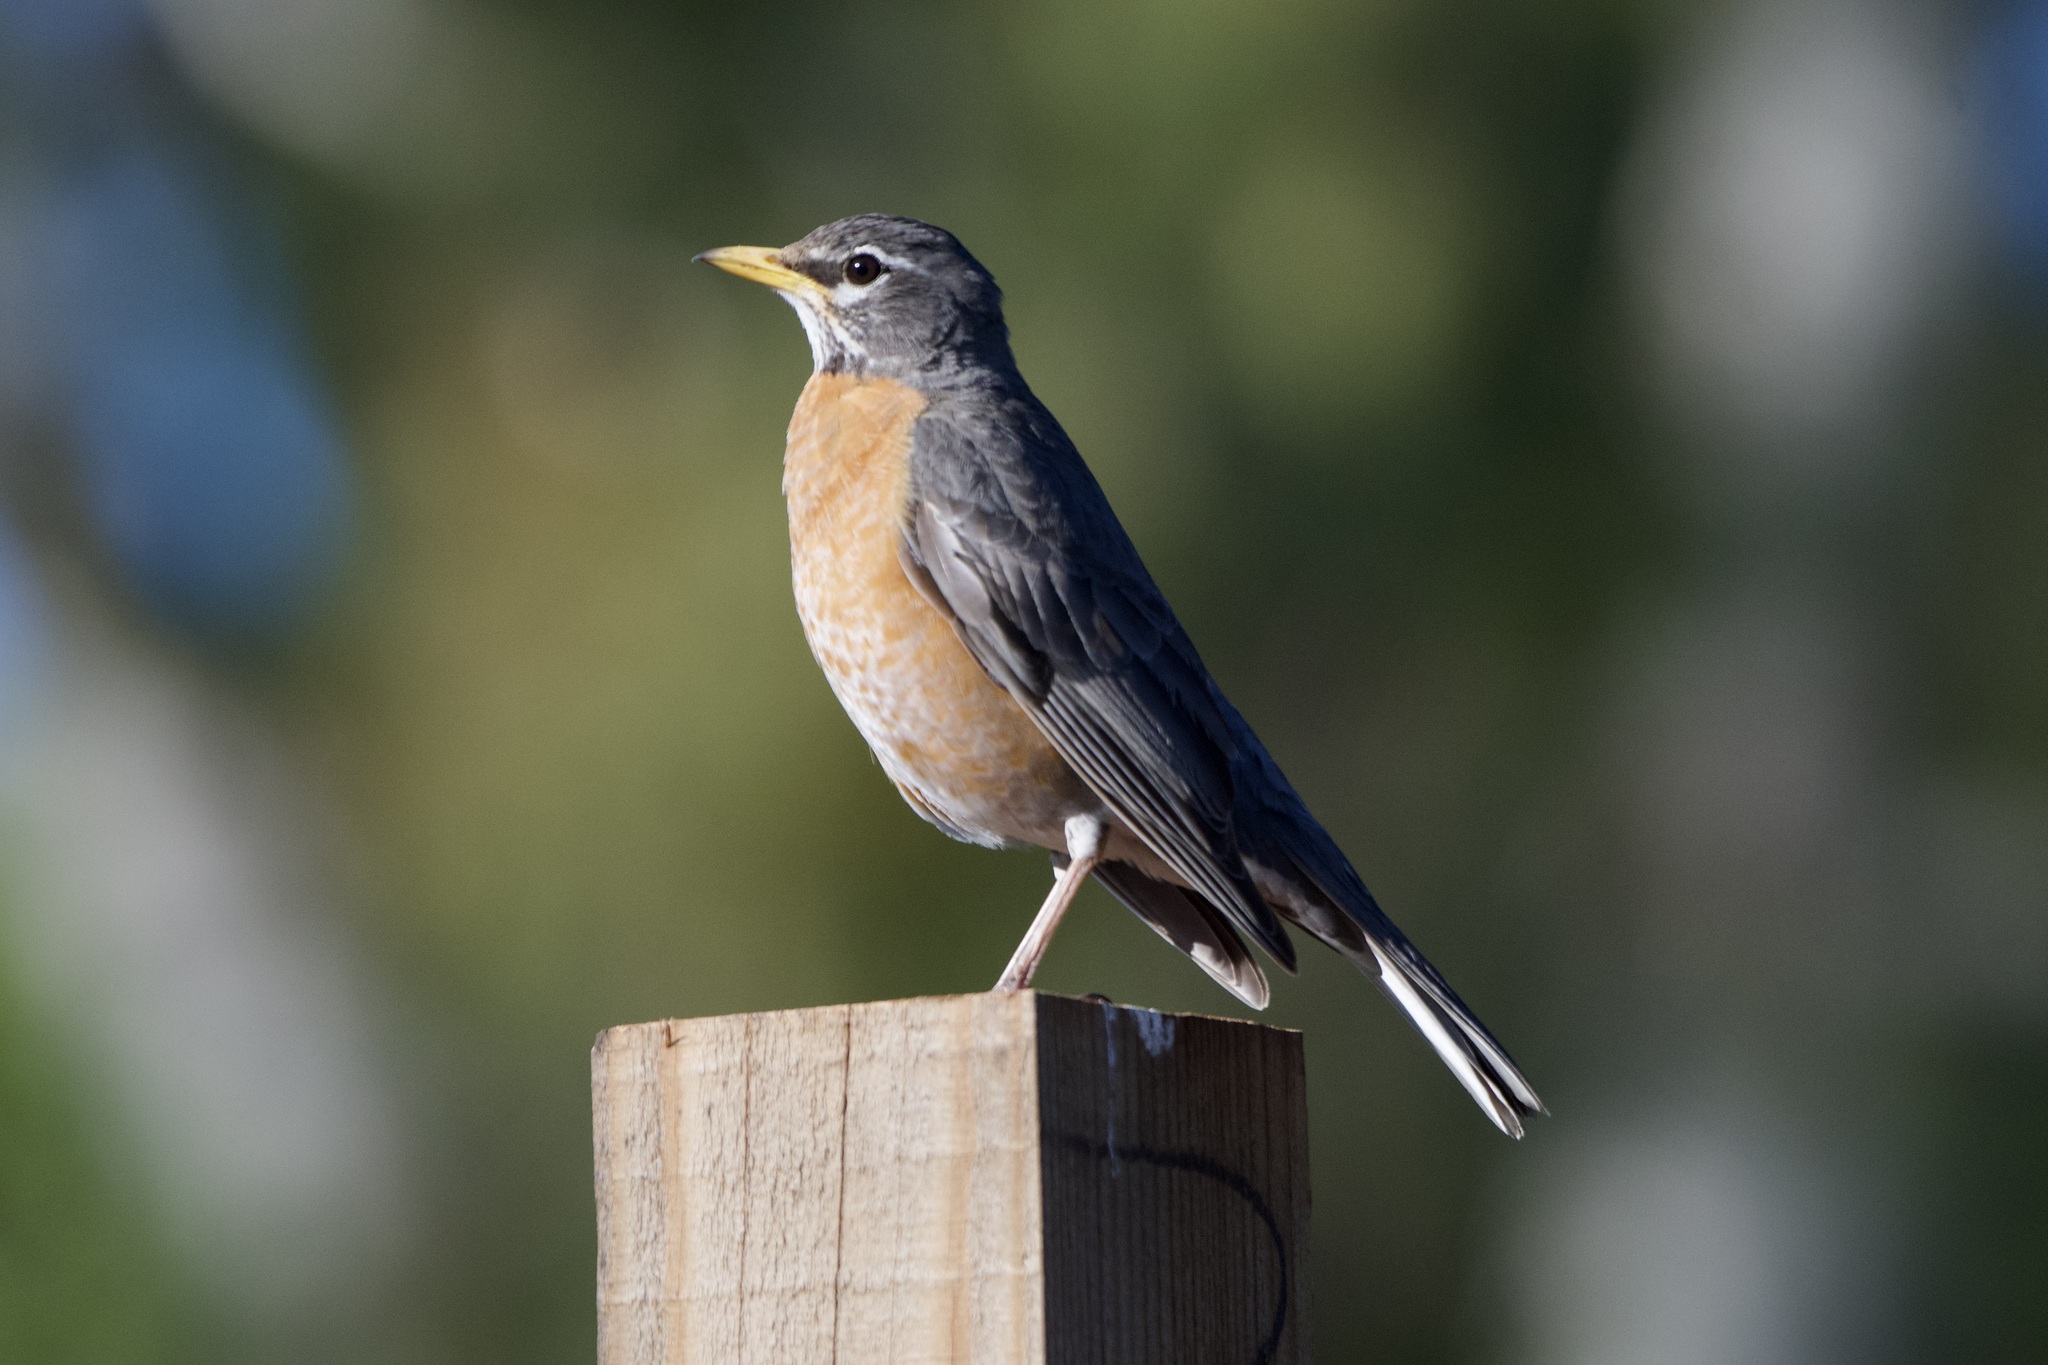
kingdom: Animalia
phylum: Chordata
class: Aves
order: Passeriformes
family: Turdidae
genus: Turdus
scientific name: Turdus migratorius
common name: American robin
